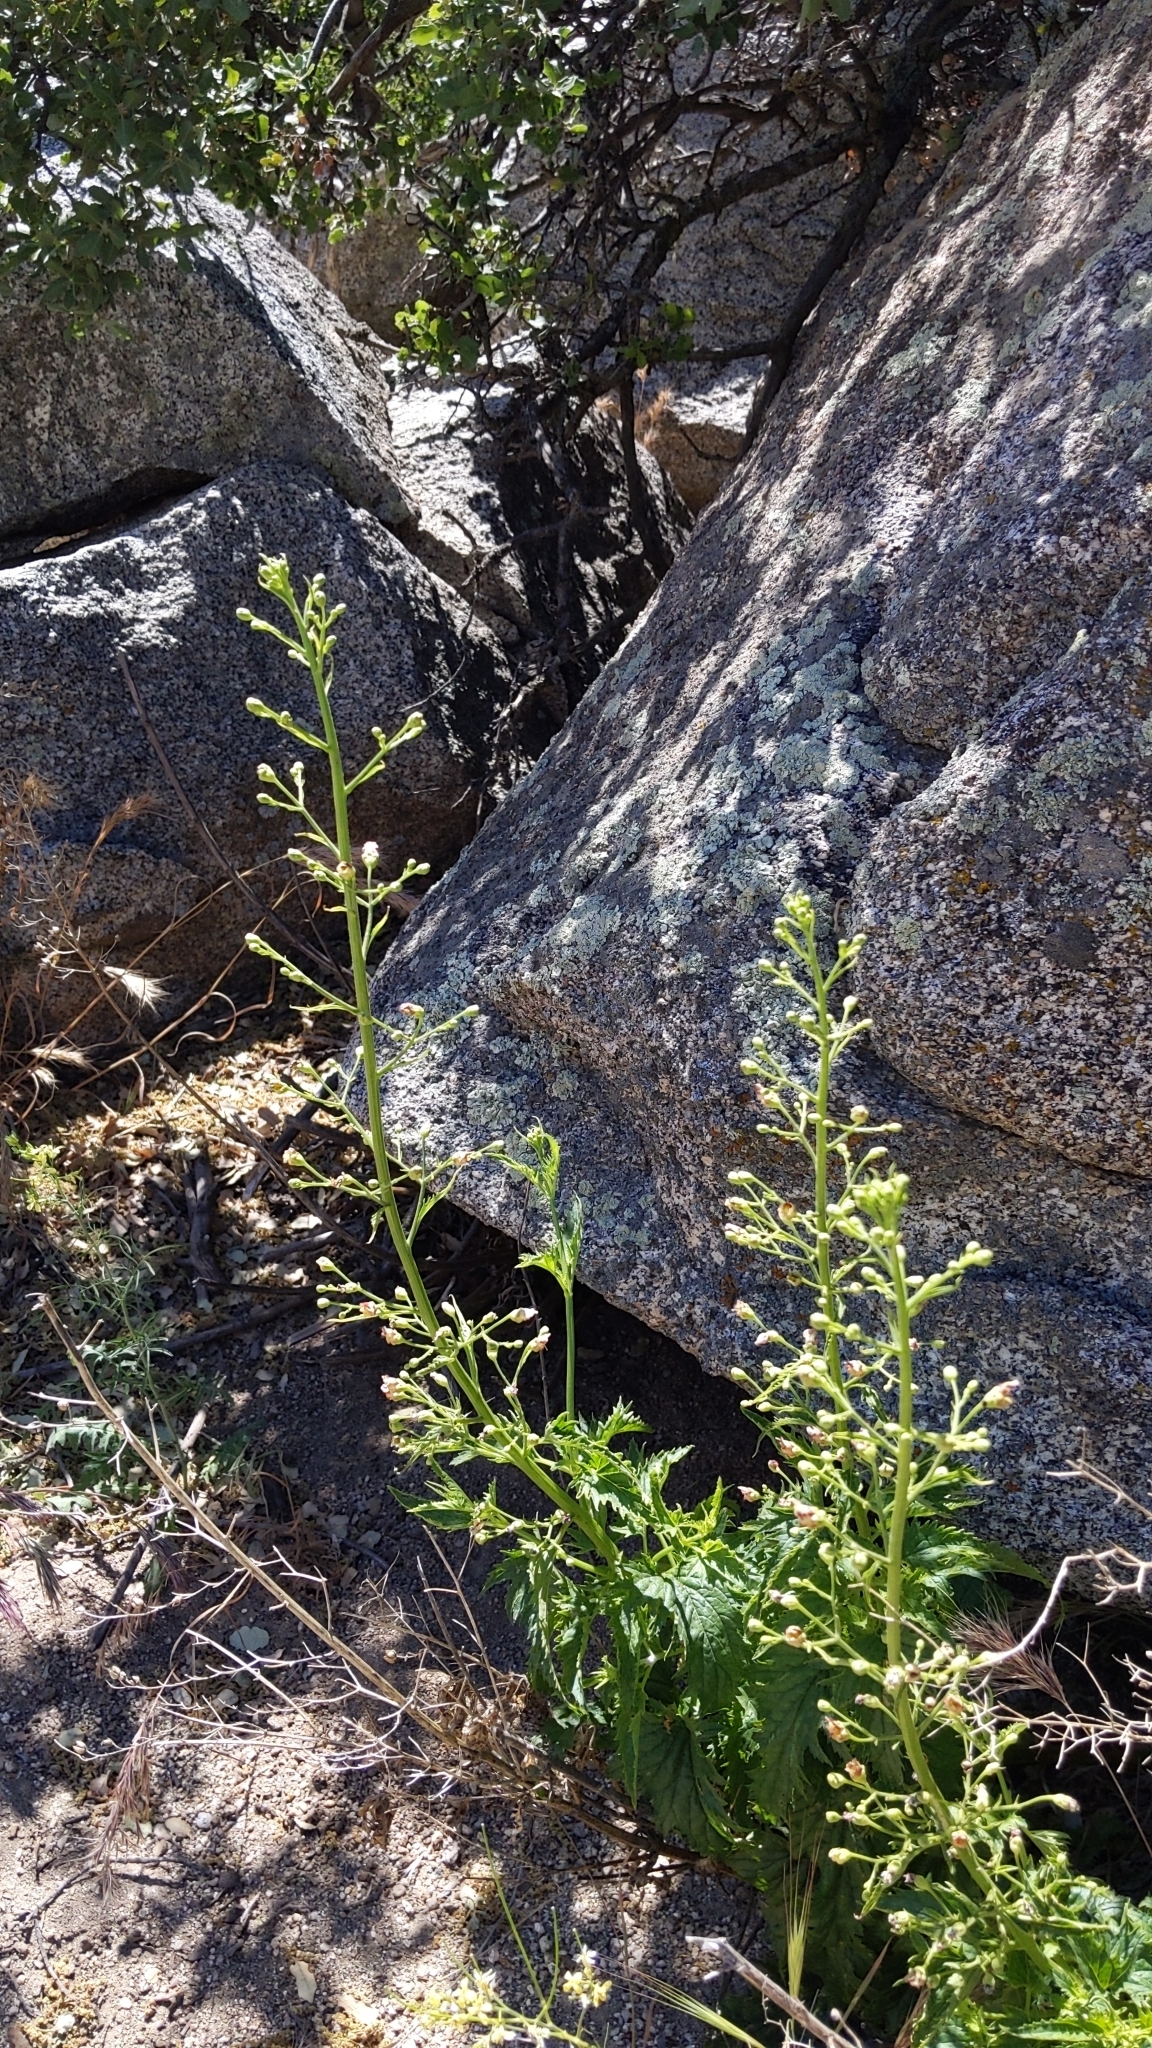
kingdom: Plantae
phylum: Tracheophyta
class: Magnoliopsida
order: Lamiales
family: Scrophulariaceae
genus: Scrophularia
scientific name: Scrophularia californica
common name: California figwort
